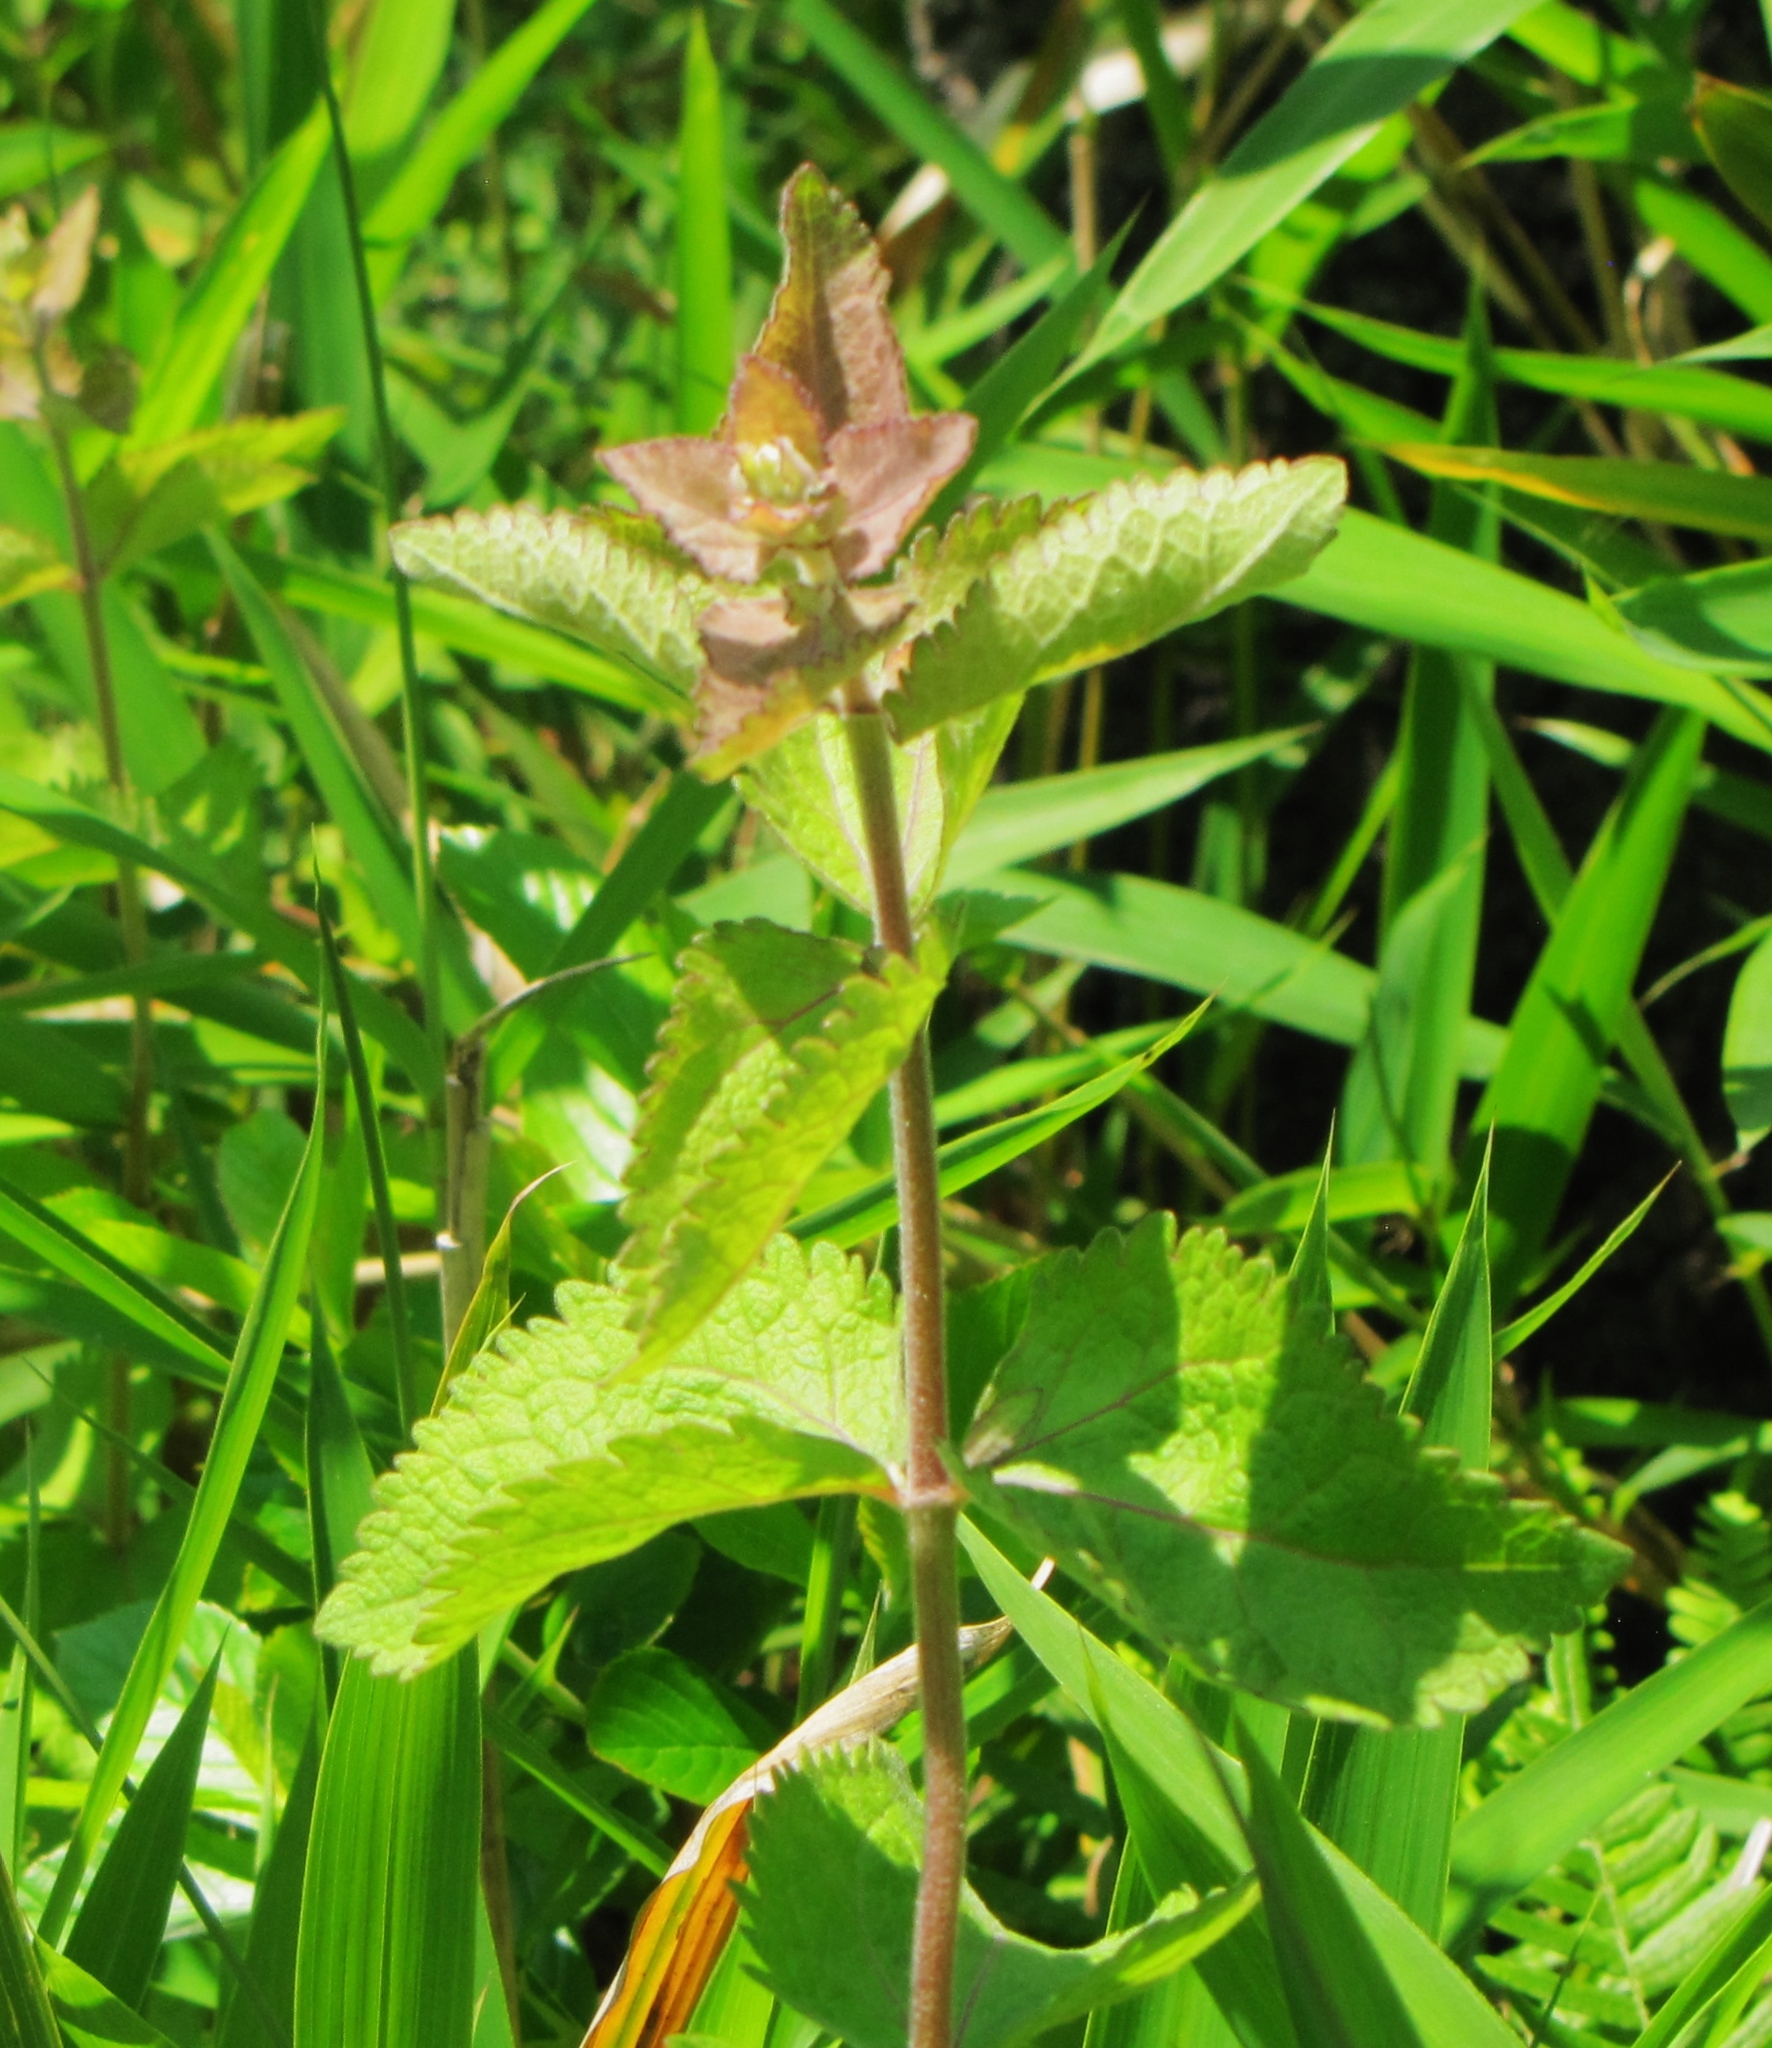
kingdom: Plantae
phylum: Tracheophyta
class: Magnoliopsida
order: Asterales
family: Asteraceae
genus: Eupatorium
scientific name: Eupatorium rotundifolium
